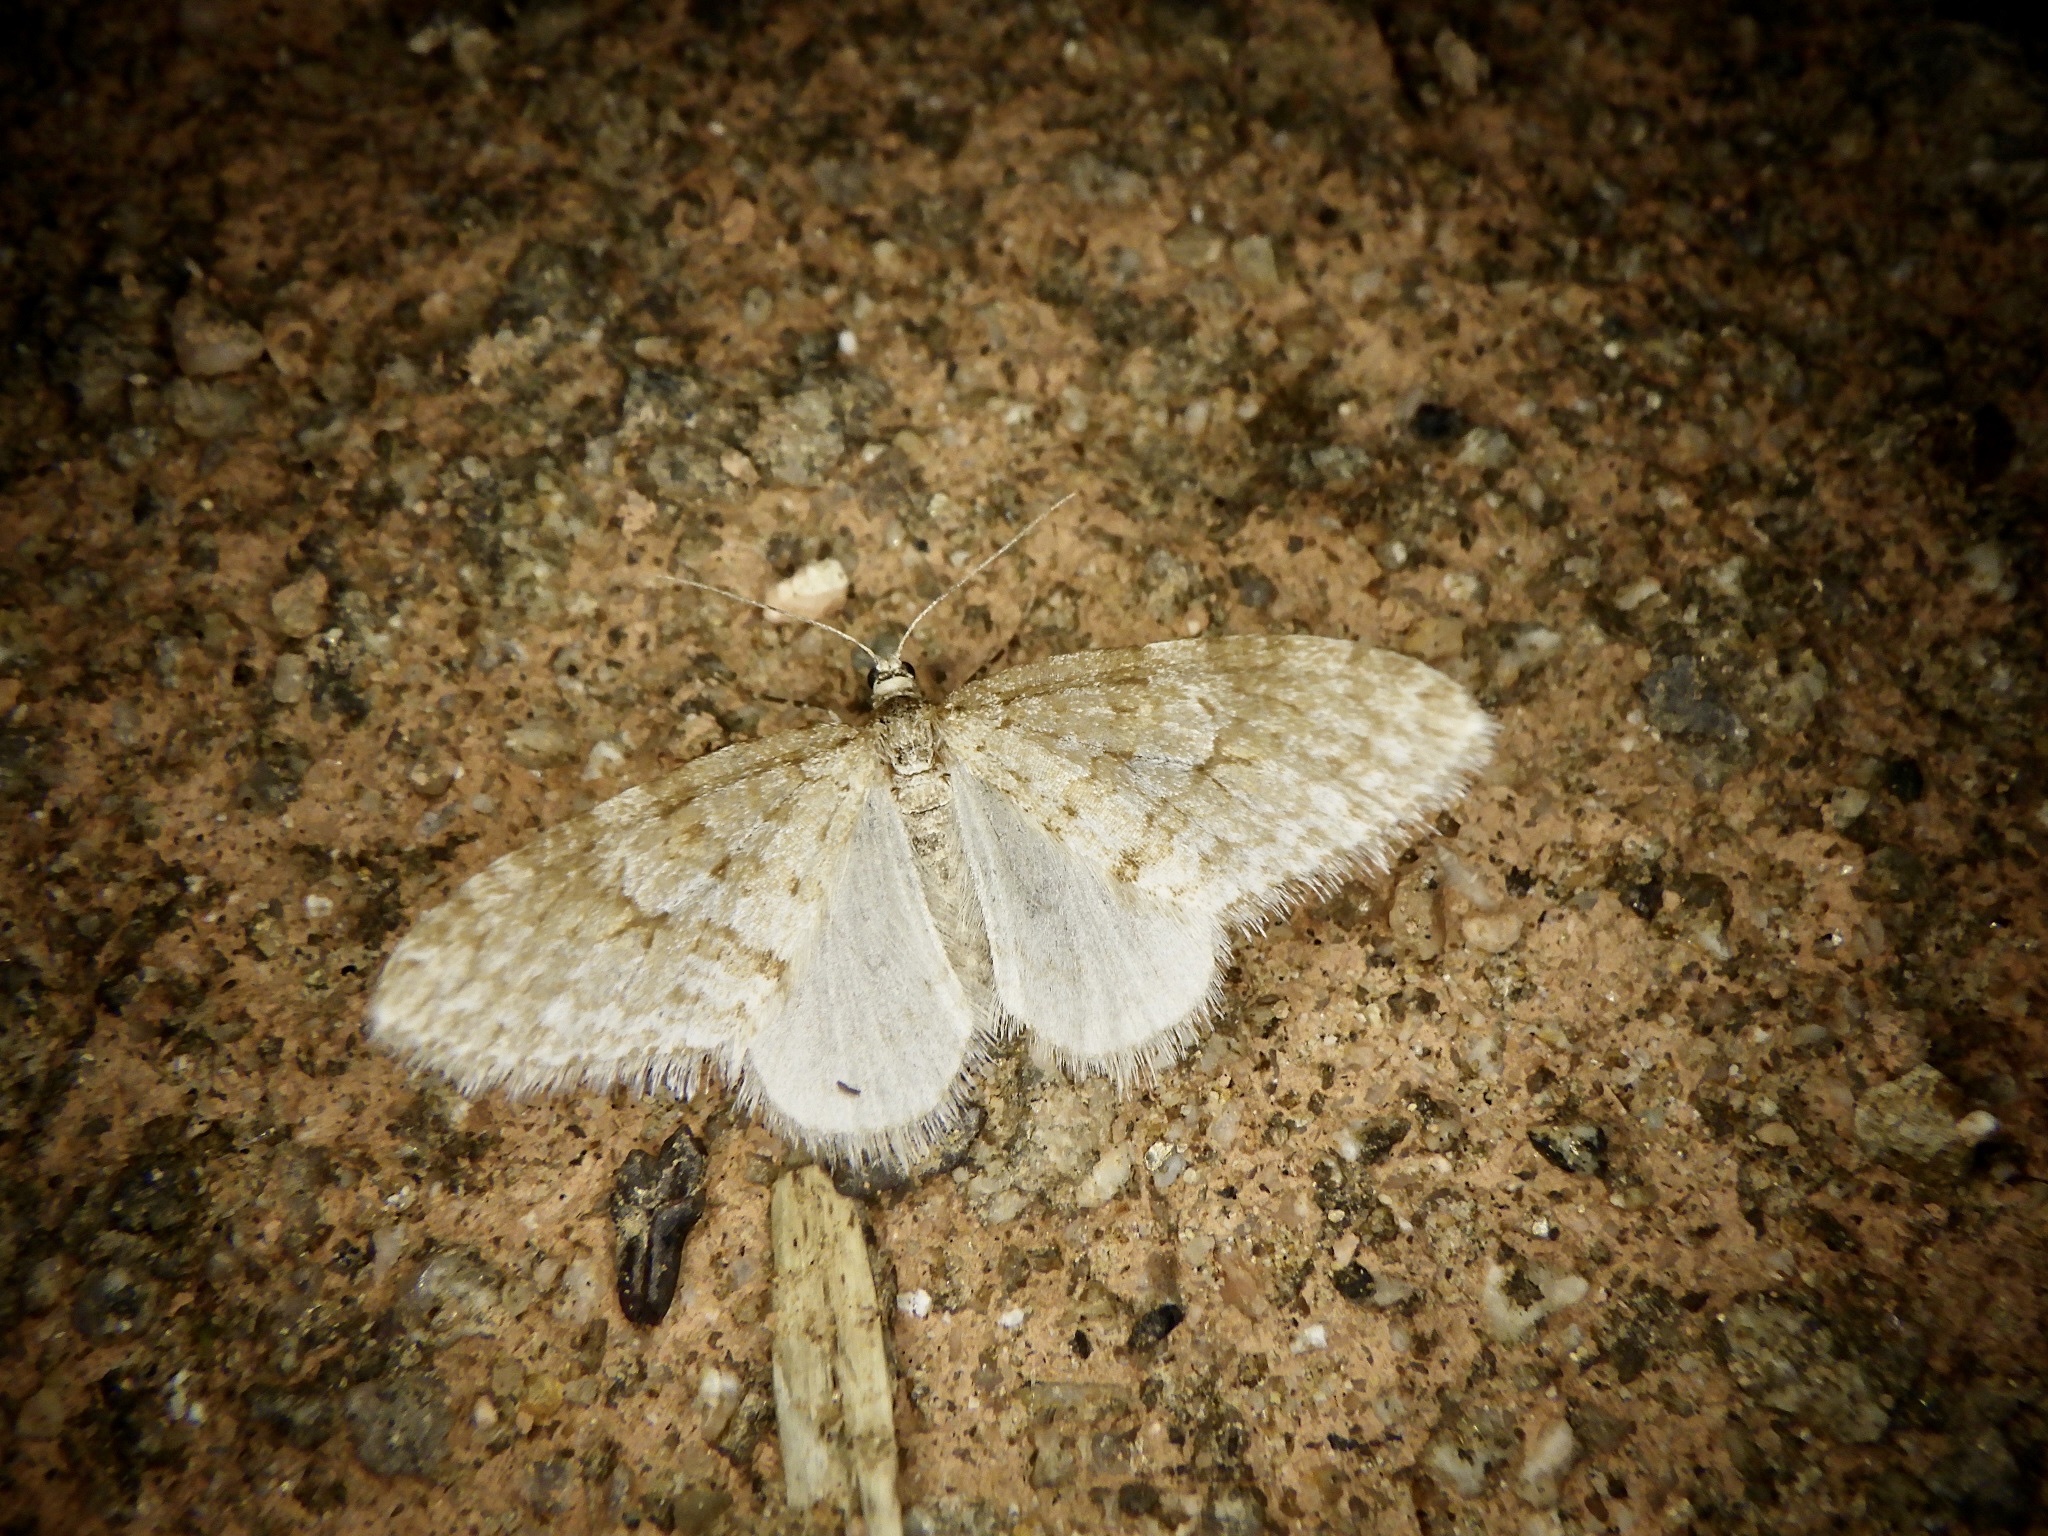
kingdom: Animalia
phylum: Arthropoda
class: Insecta
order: Lepidoptera
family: Geometridae
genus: Trichopteryx
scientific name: Trichopteryx ignorata
